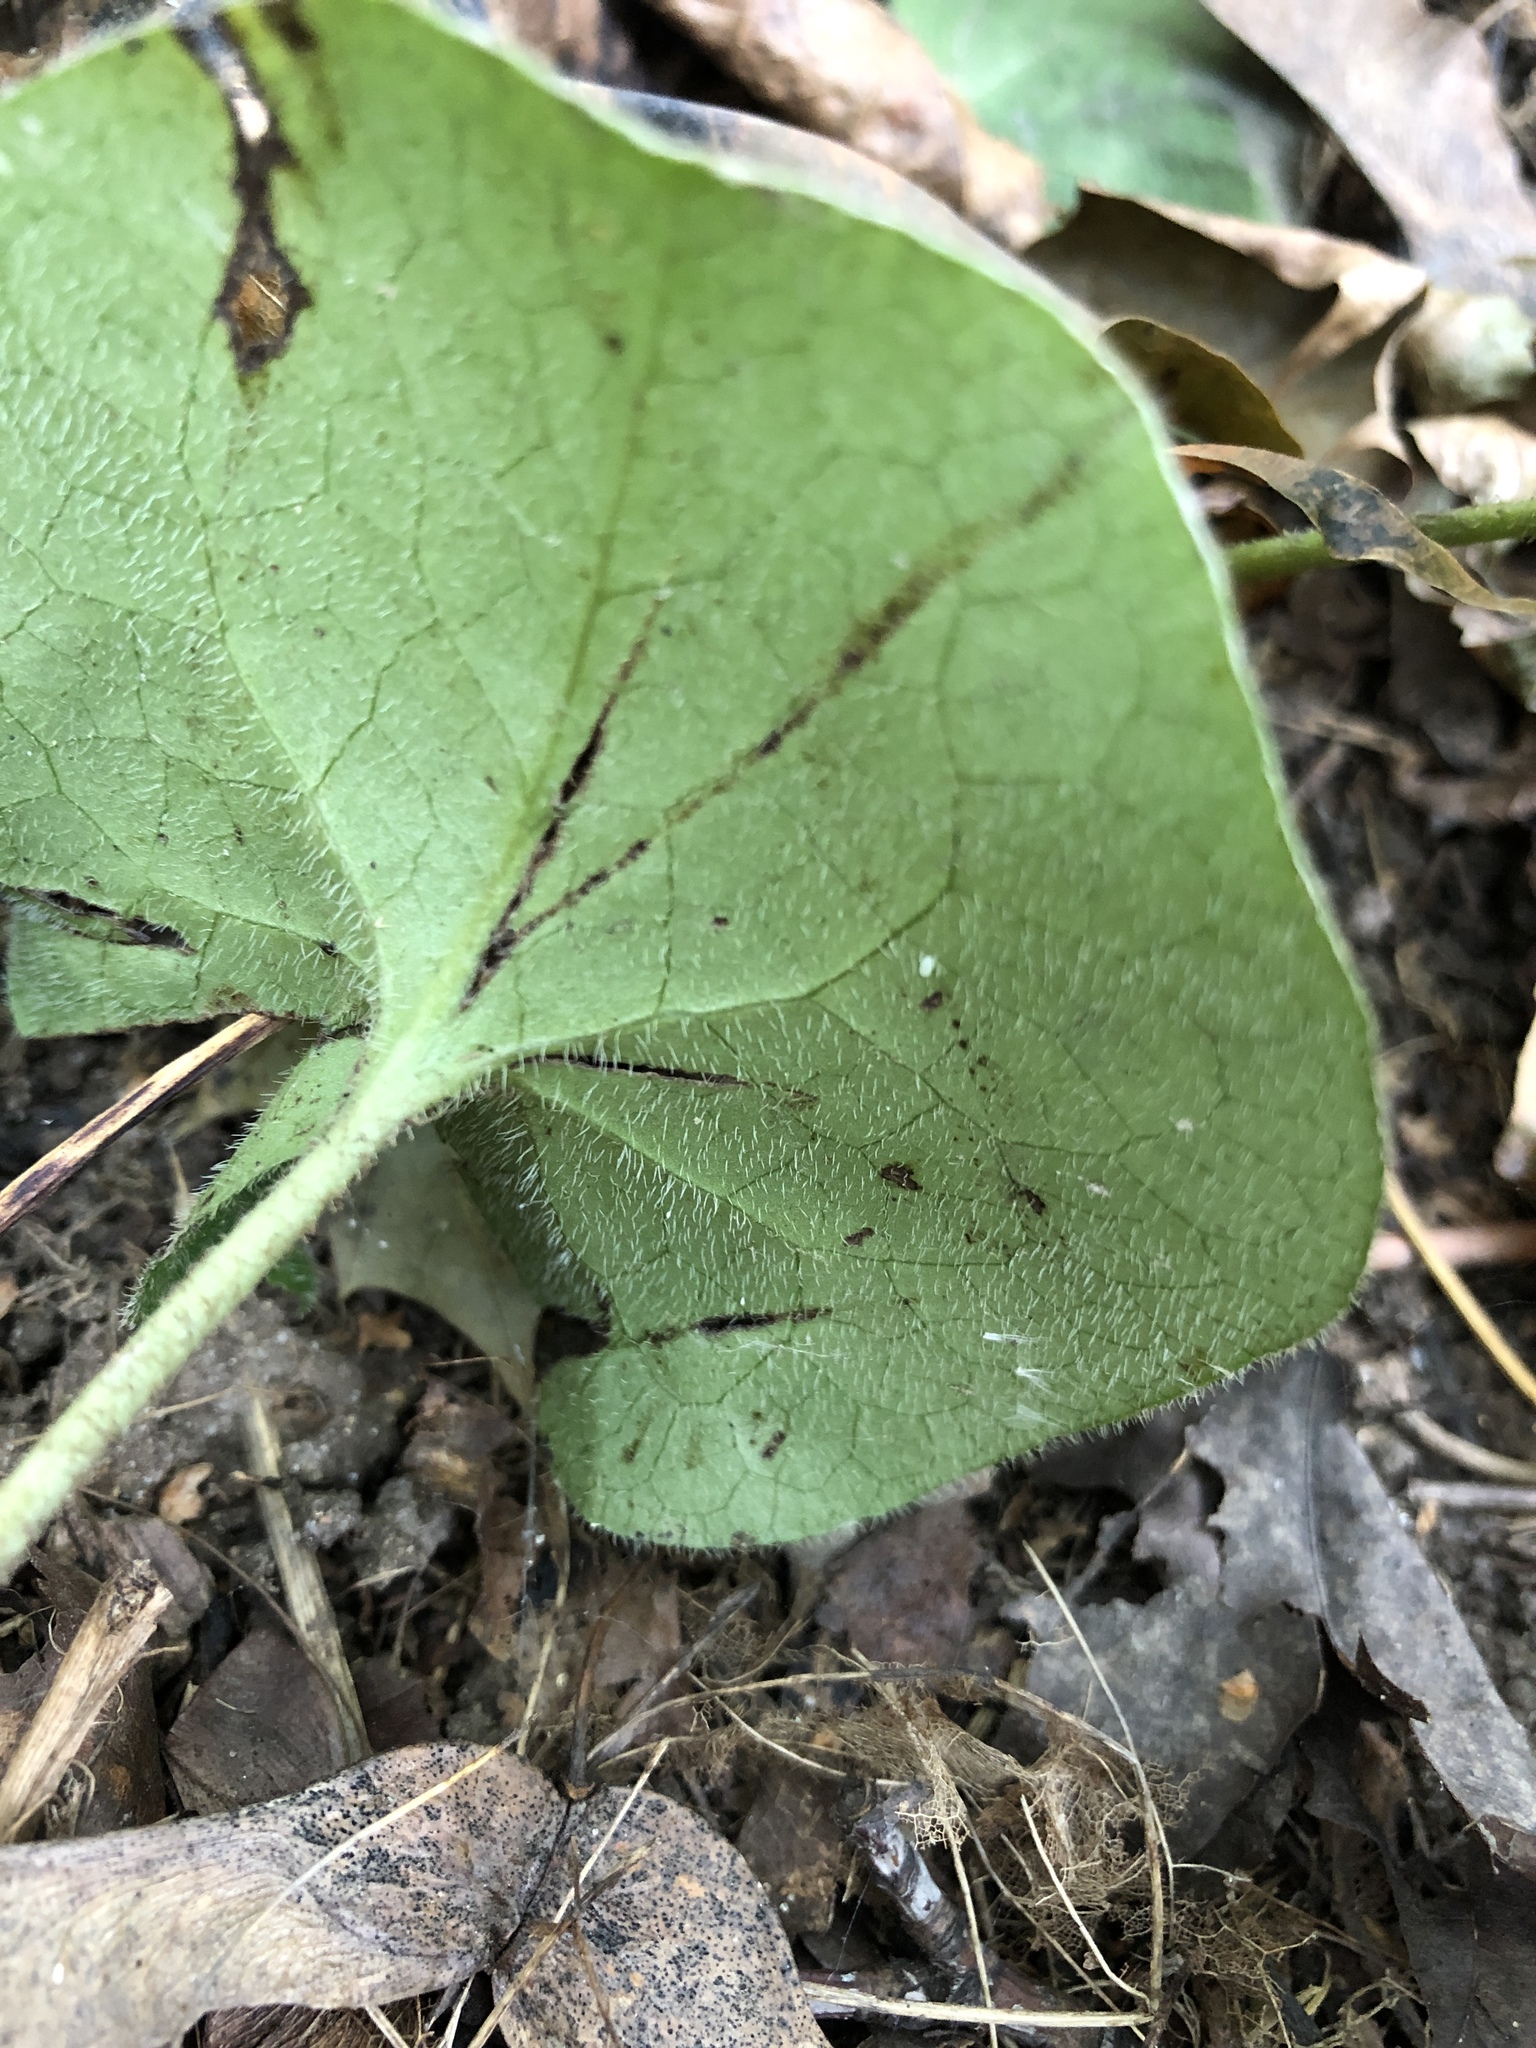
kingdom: Plantae
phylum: Tracheophyta
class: Magnoliopsida
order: Piperales
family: Aristolochiaceae
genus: Asarum
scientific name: Asarum europaeum
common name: Asarabacca
